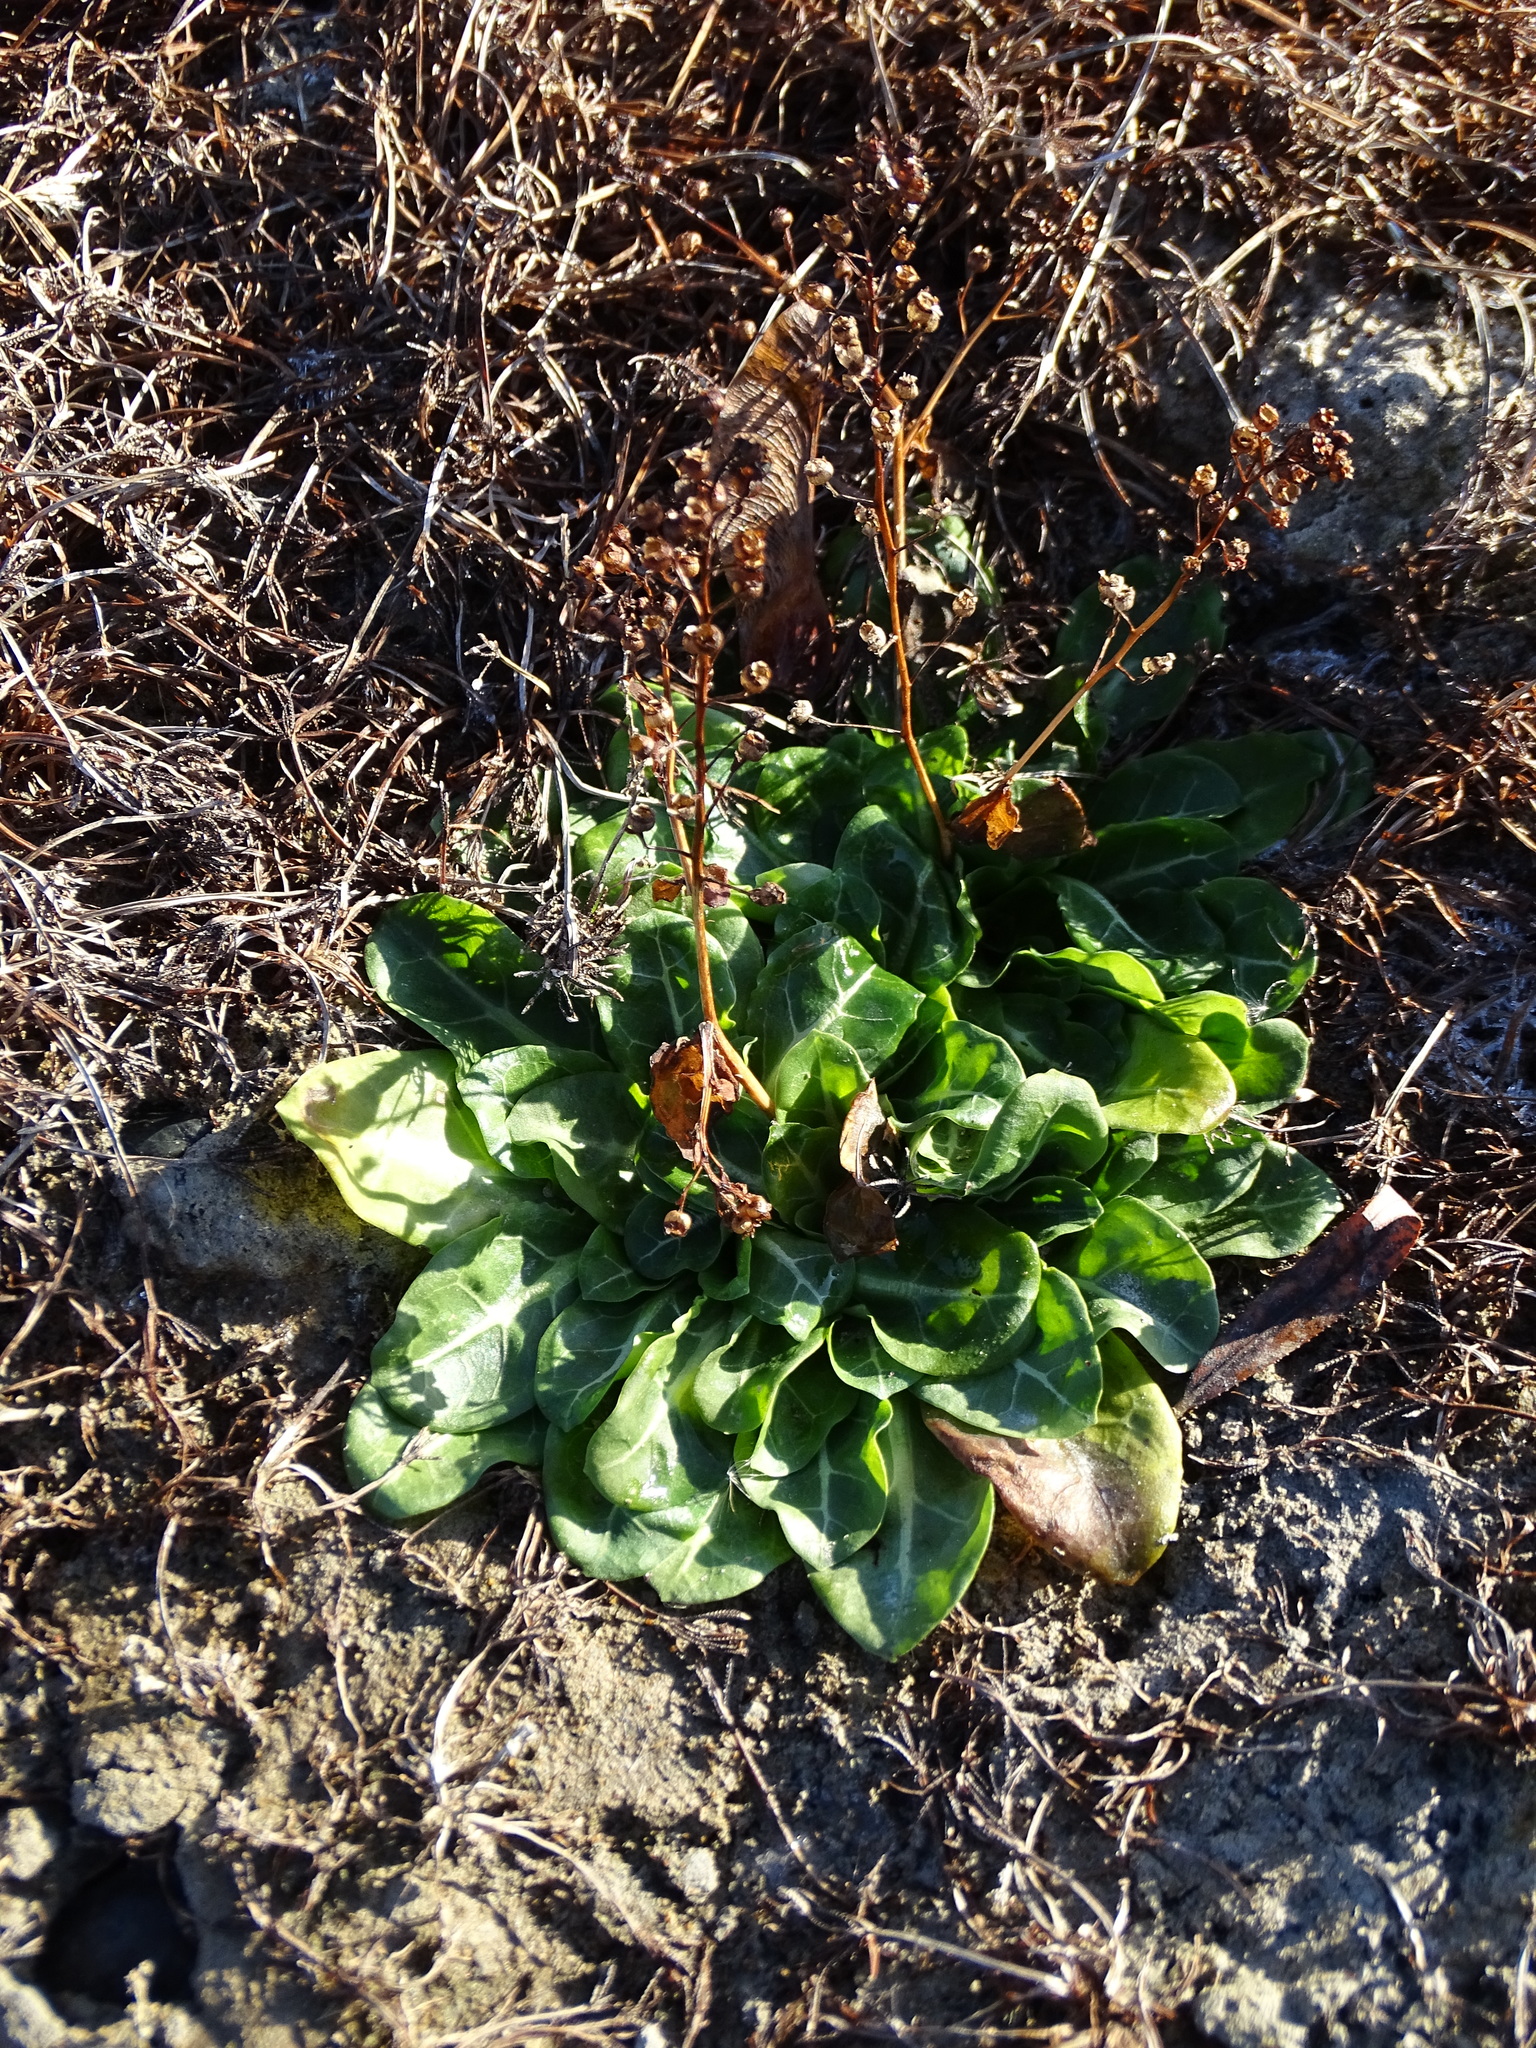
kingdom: Plantae
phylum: Tracheophyta
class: Magnoliopsida
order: Ericales
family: Primulaceae
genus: Samolus
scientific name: Samolus valerandi
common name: Brookweed
